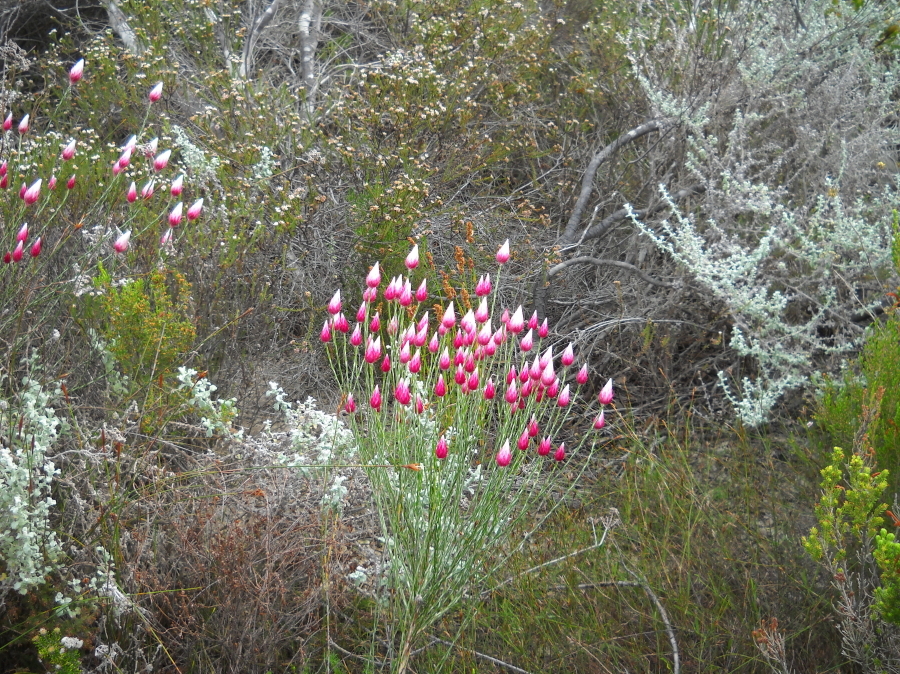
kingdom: Plantae
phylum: Tracheophyta
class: Magnoliopsida
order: Asterales
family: Asteraceae
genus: Edmondia
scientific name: Edmondia sesamoides
